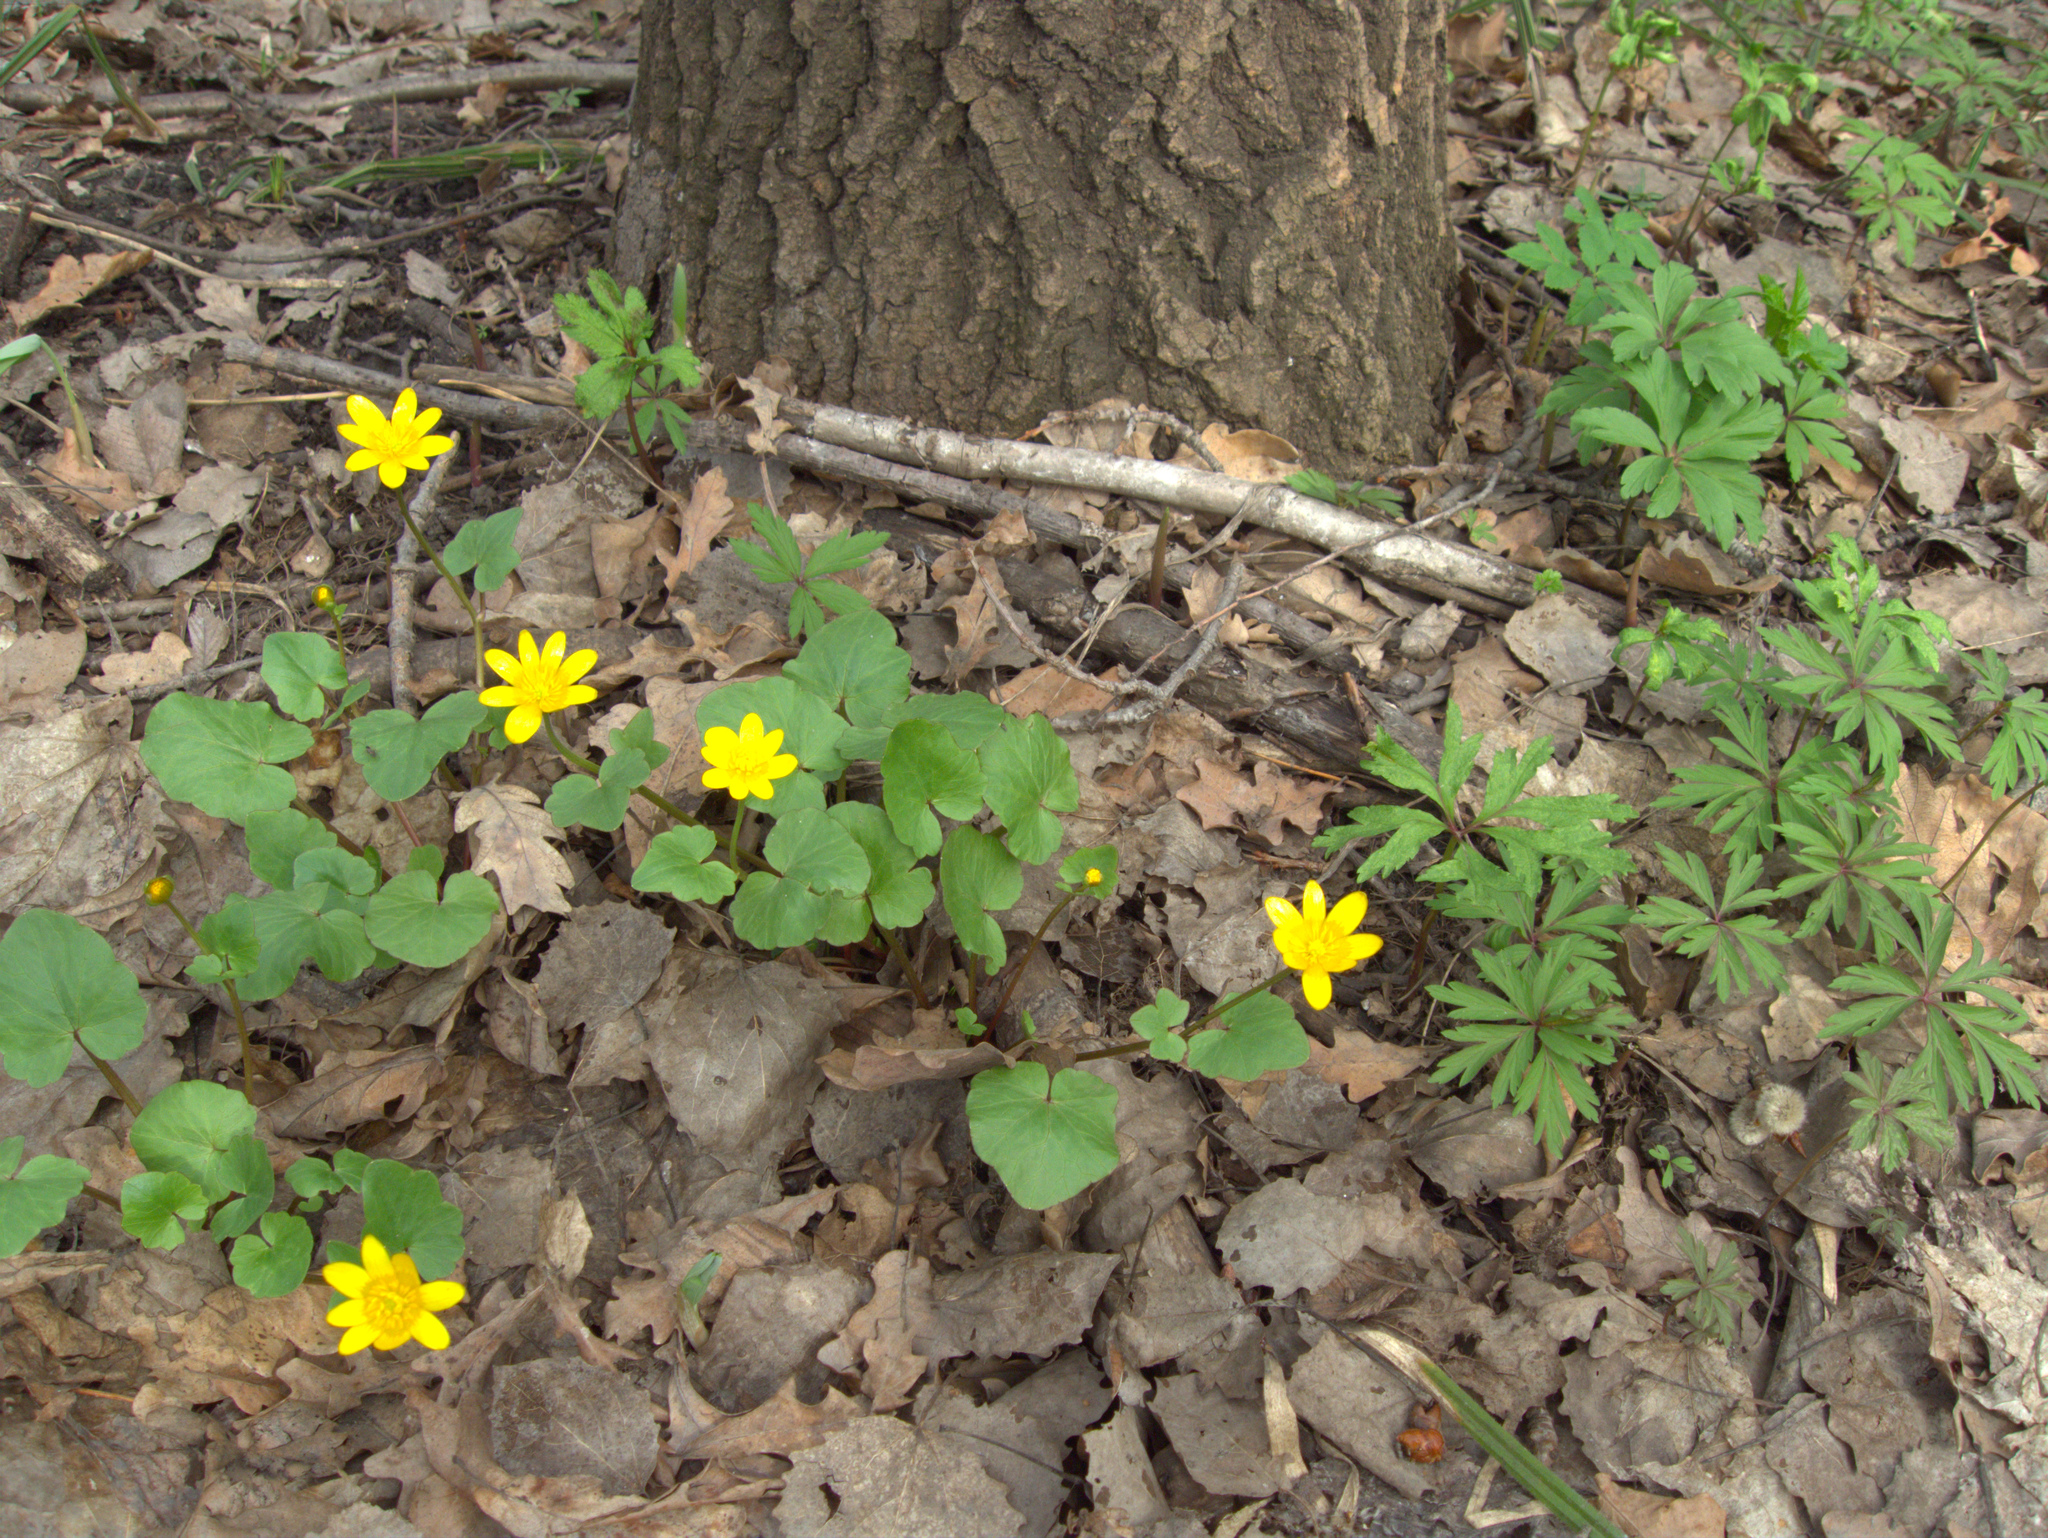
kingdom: Plantae
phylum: Tracheophyta
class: Magnoliopsida
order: Ranunculales
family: Ranunculaceae
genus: Ficaria
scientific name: Ficaria verna
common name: Lesser celandine
